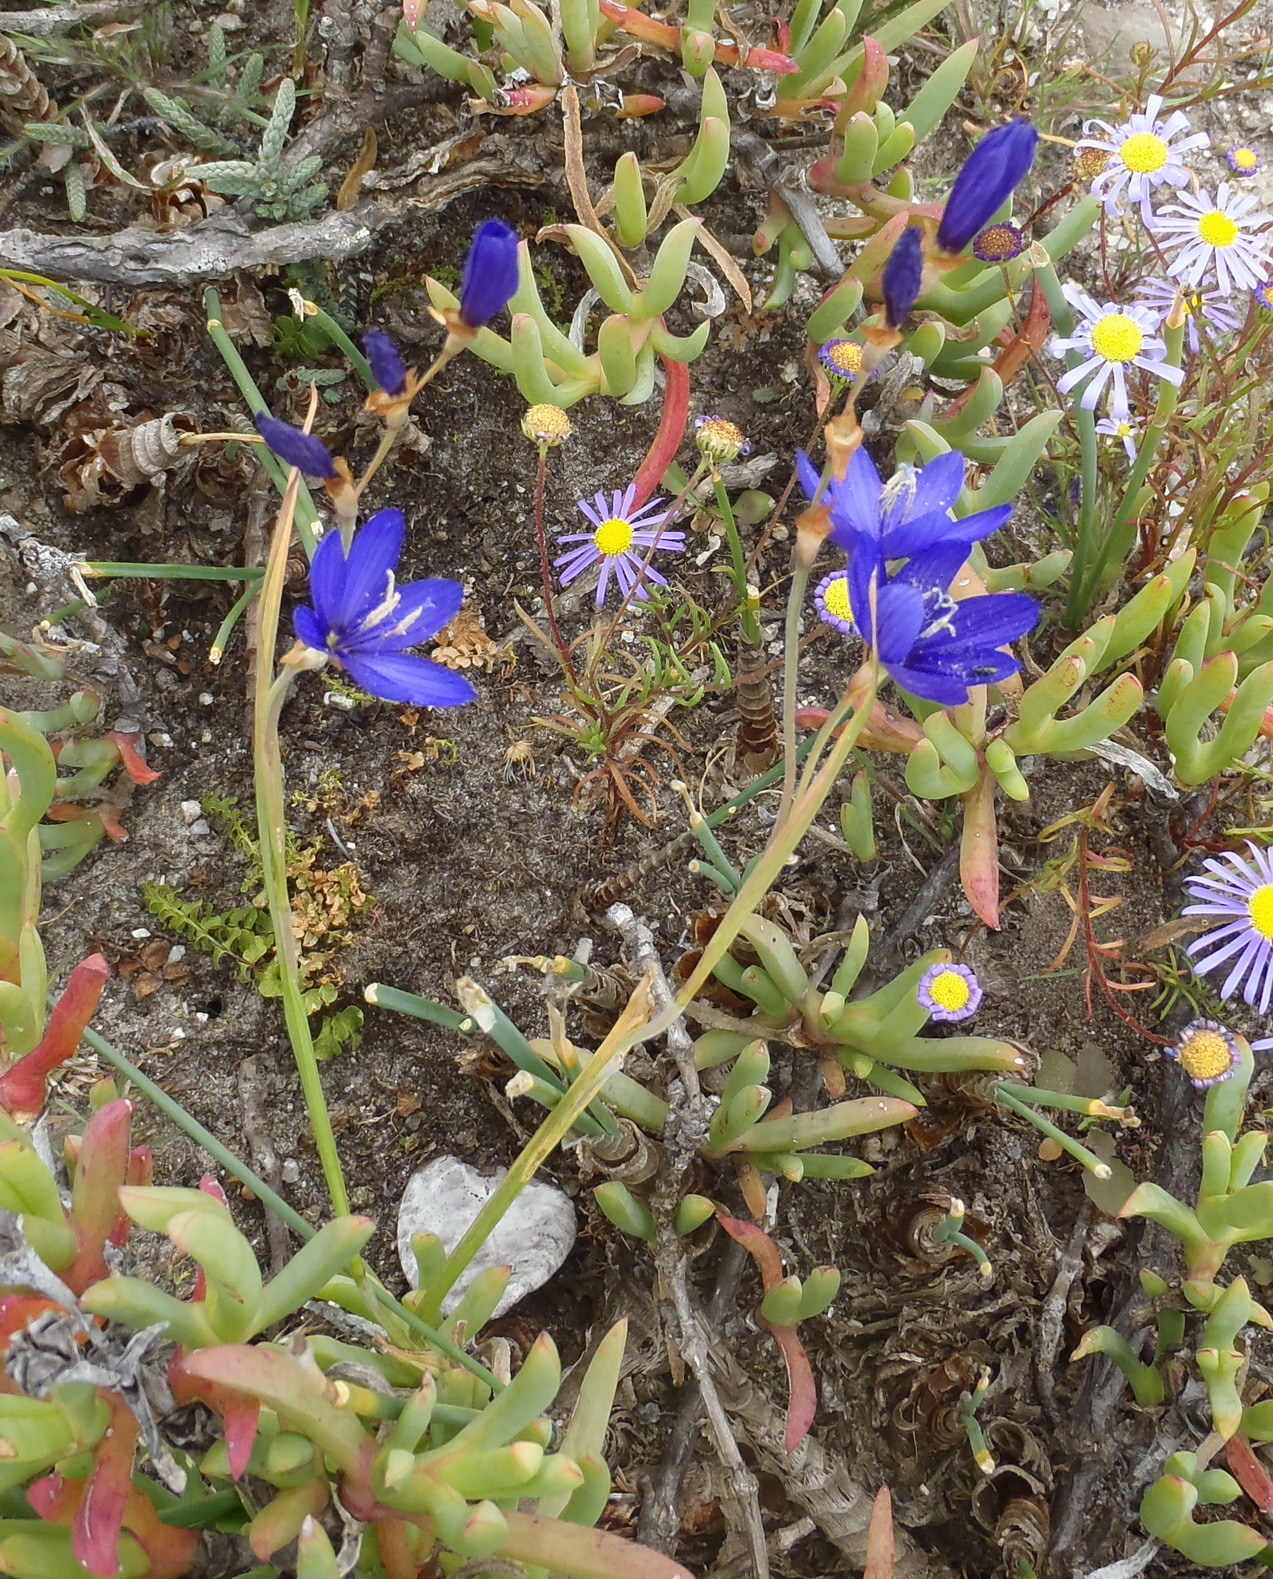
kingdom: Plantae
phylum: Tracheophyta
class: Liliopsida
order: Asparagales
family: Iridaceae
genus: Geissorhiza
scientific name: Geissorhiza lewisiae
